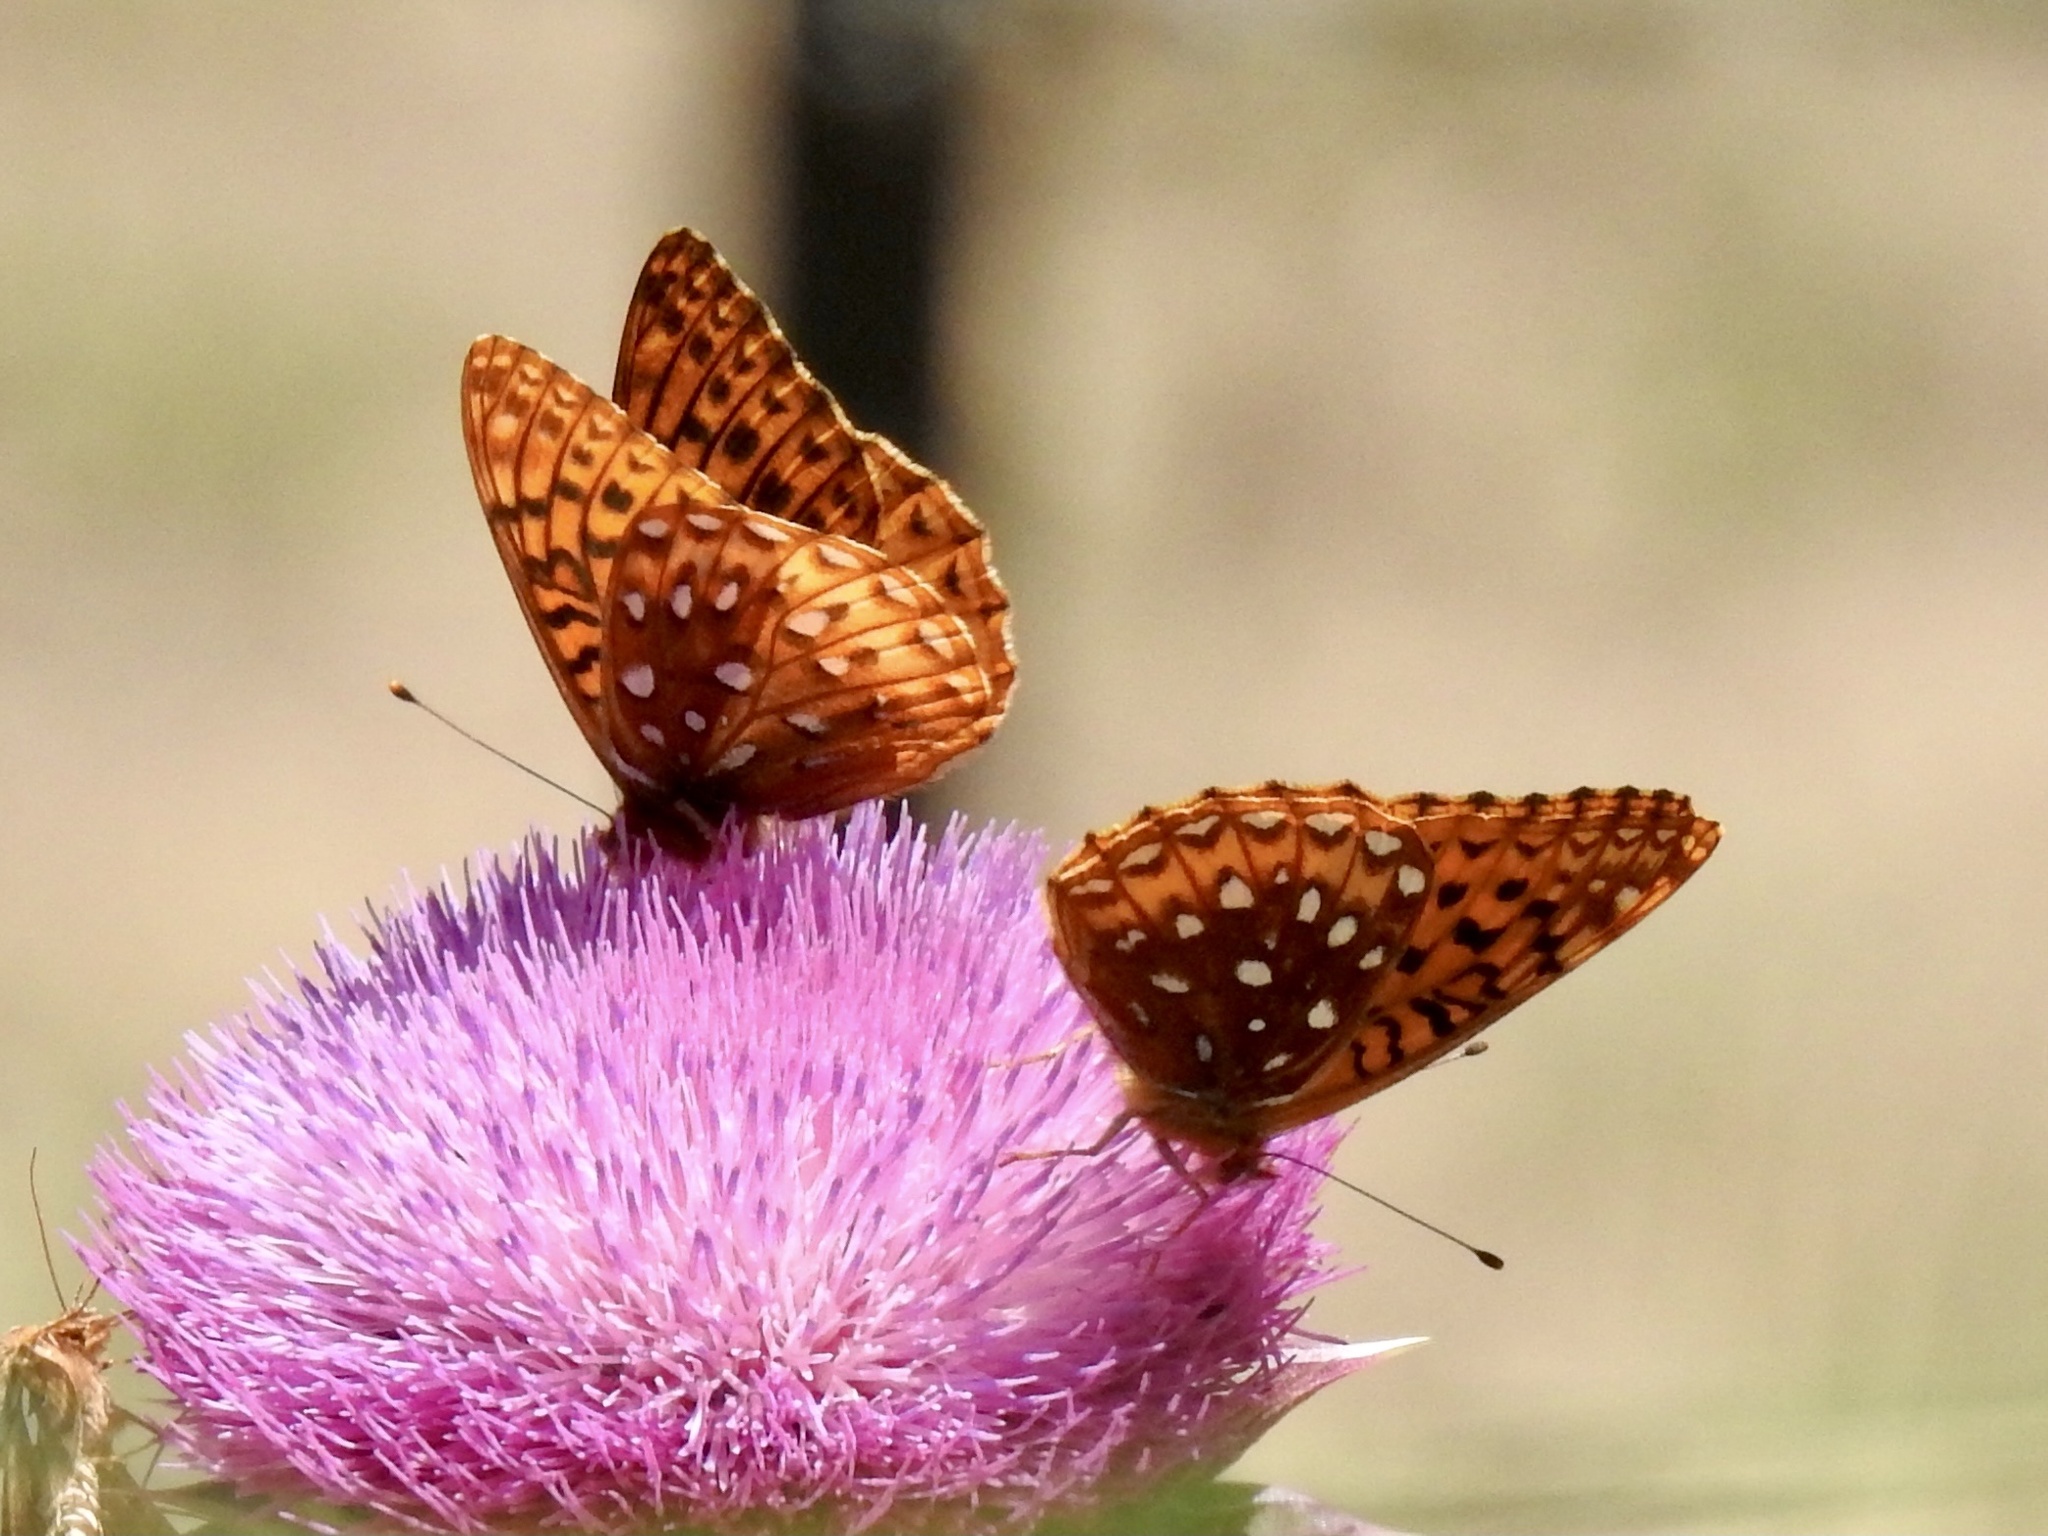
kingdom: Animalia
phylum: Arthropoda
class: Insecta
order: Lepidoptera
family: Nymphalidae
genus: Speyeria
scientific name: Speyeria atlantis
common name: Atlantis fritillary
